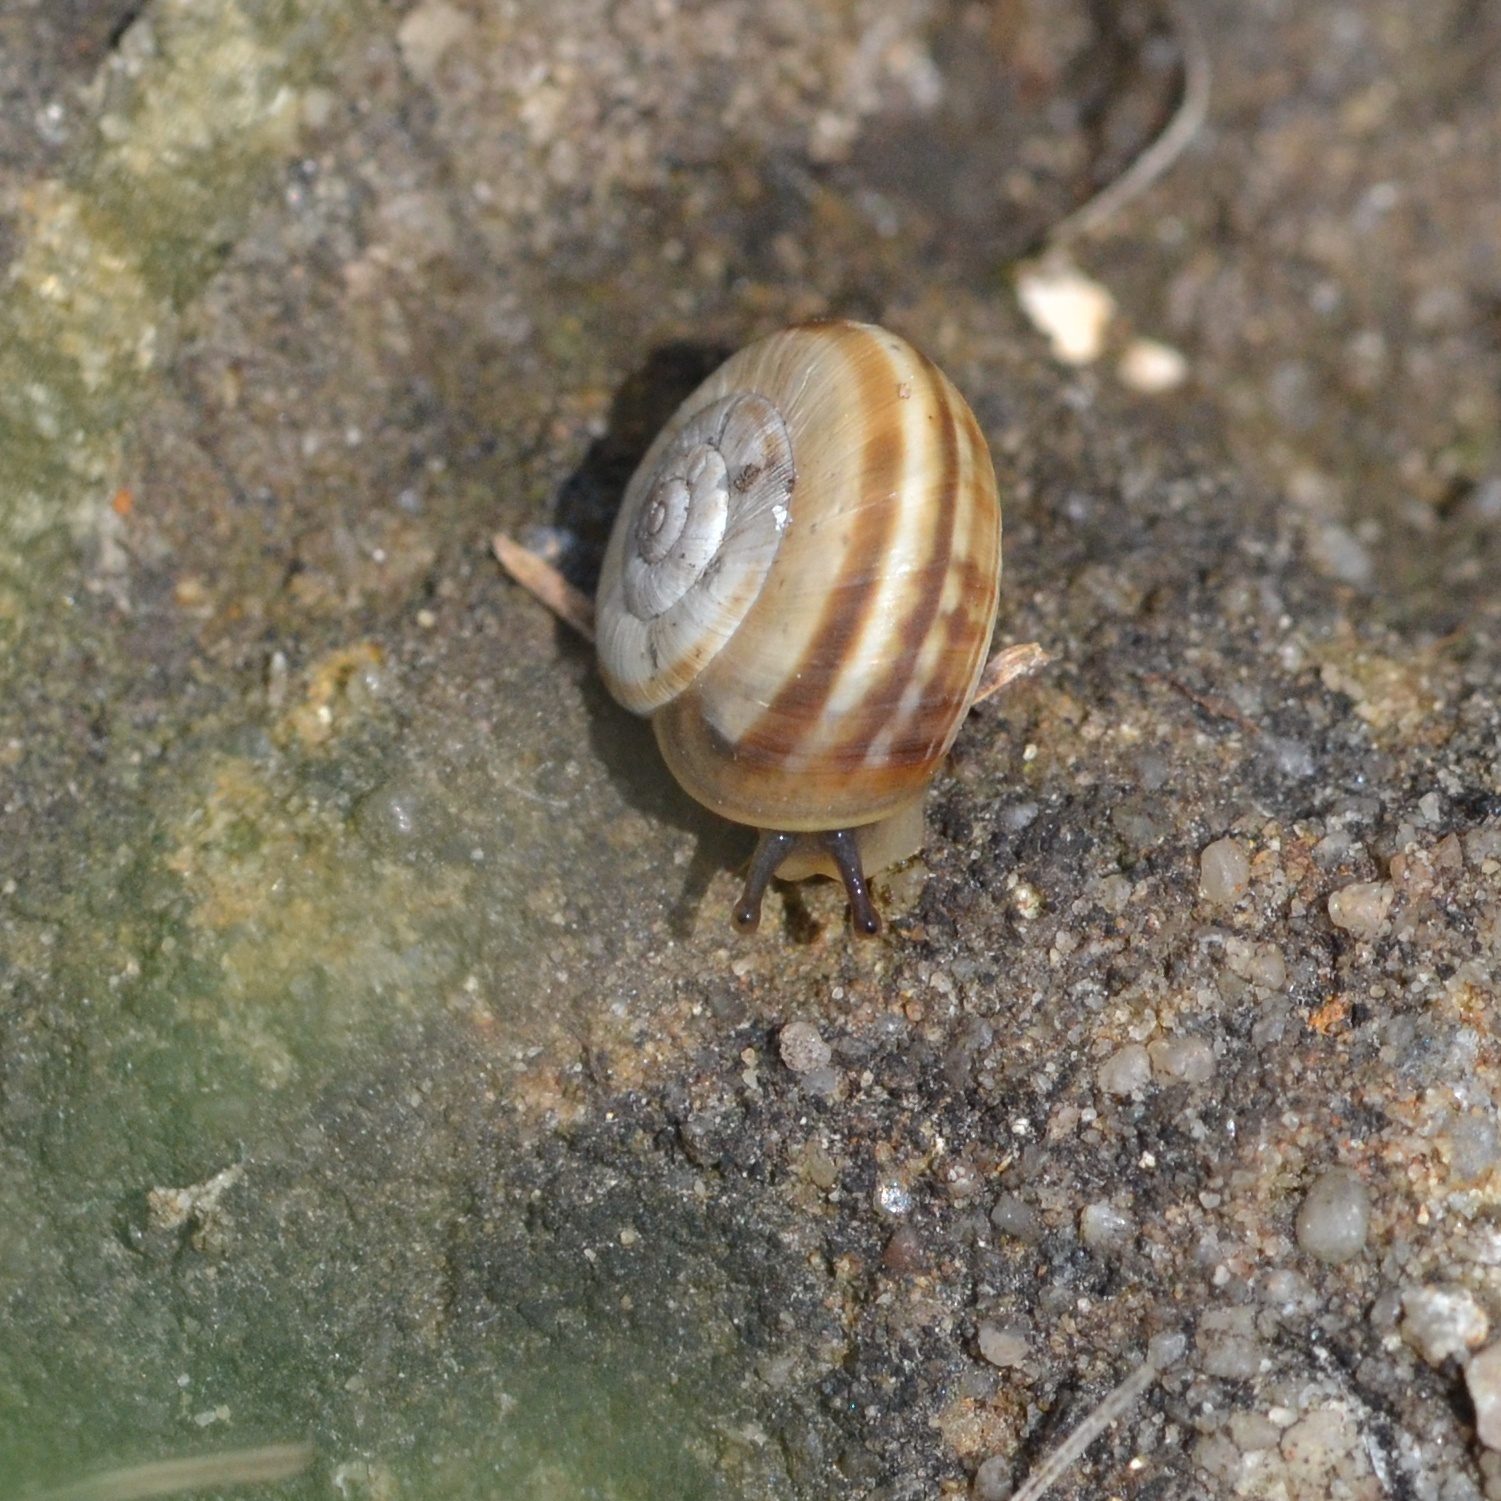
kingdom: Animalia
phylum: Mollusca
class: Gastropoda
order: Stylommatophora
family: Geomitridae
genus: Xerolenta
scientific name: Xerolenta obvia
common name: White heath snail
